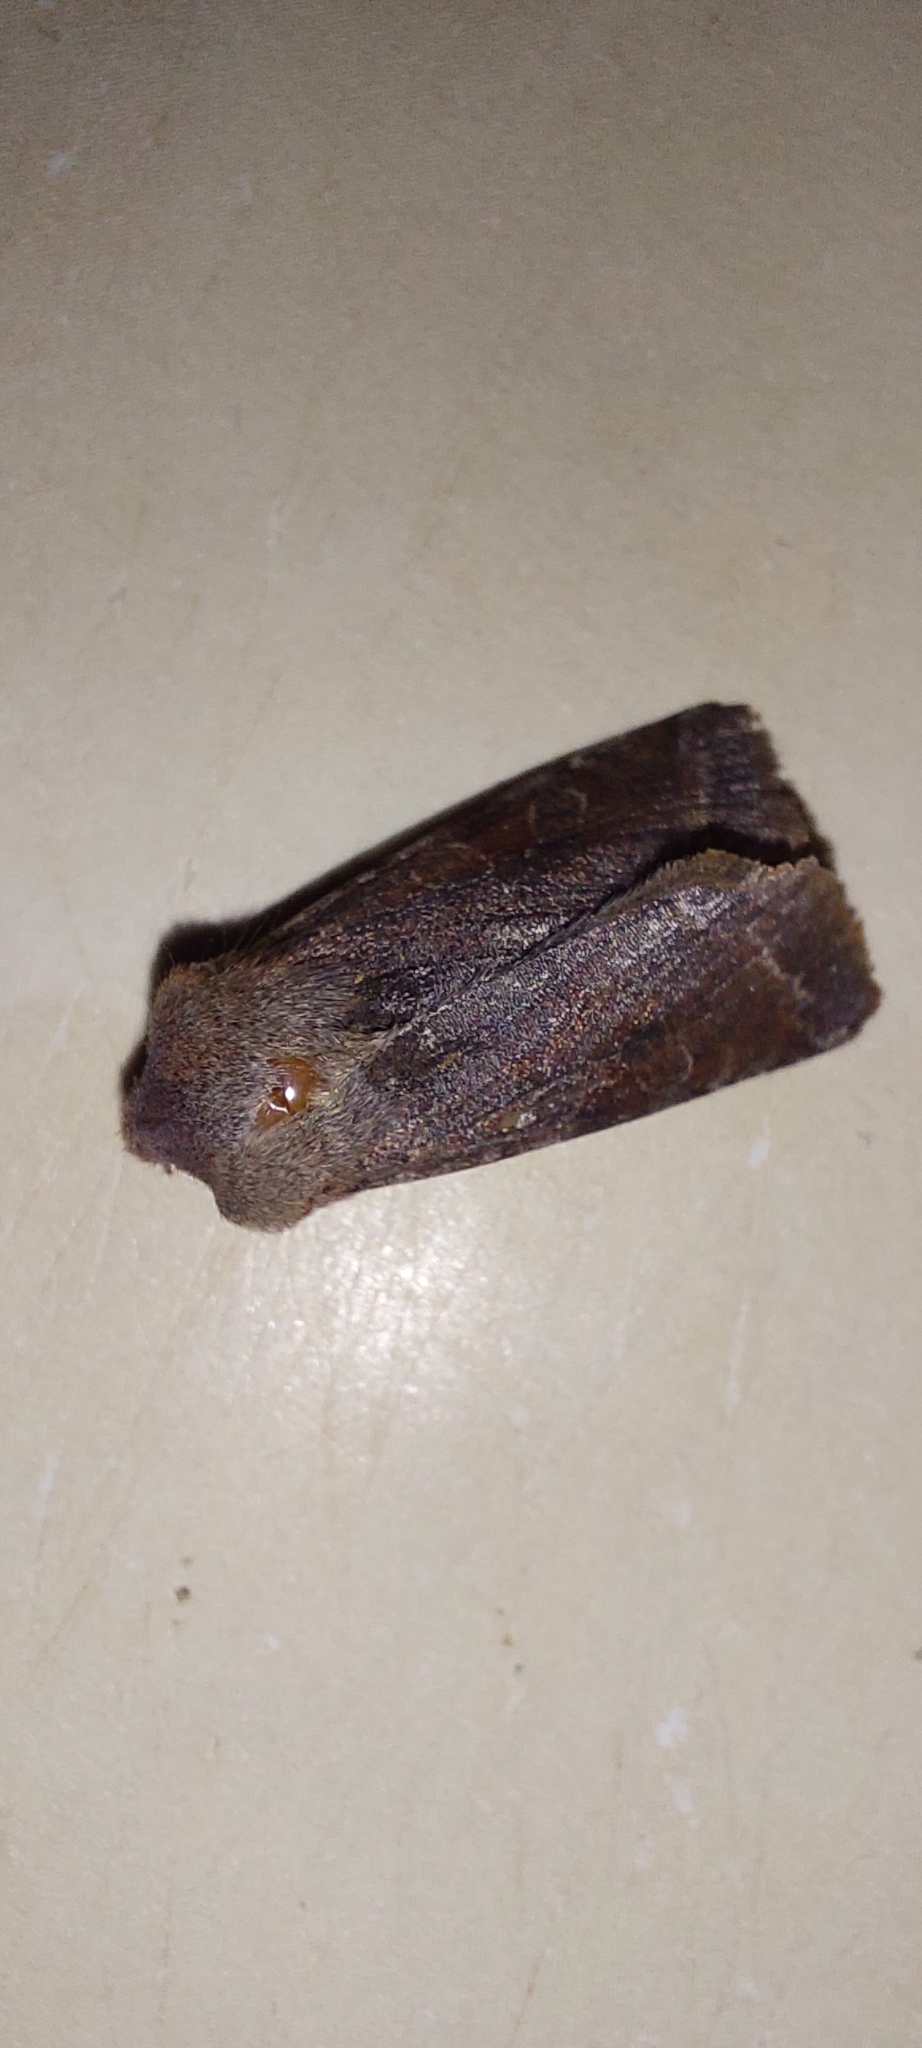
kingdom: Animalia
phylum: Arthropoda
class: Insecta
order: Lepidoptera
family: Noctuidae
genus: Orthosia
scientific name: Orthosia cerasi
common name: Common quaker
